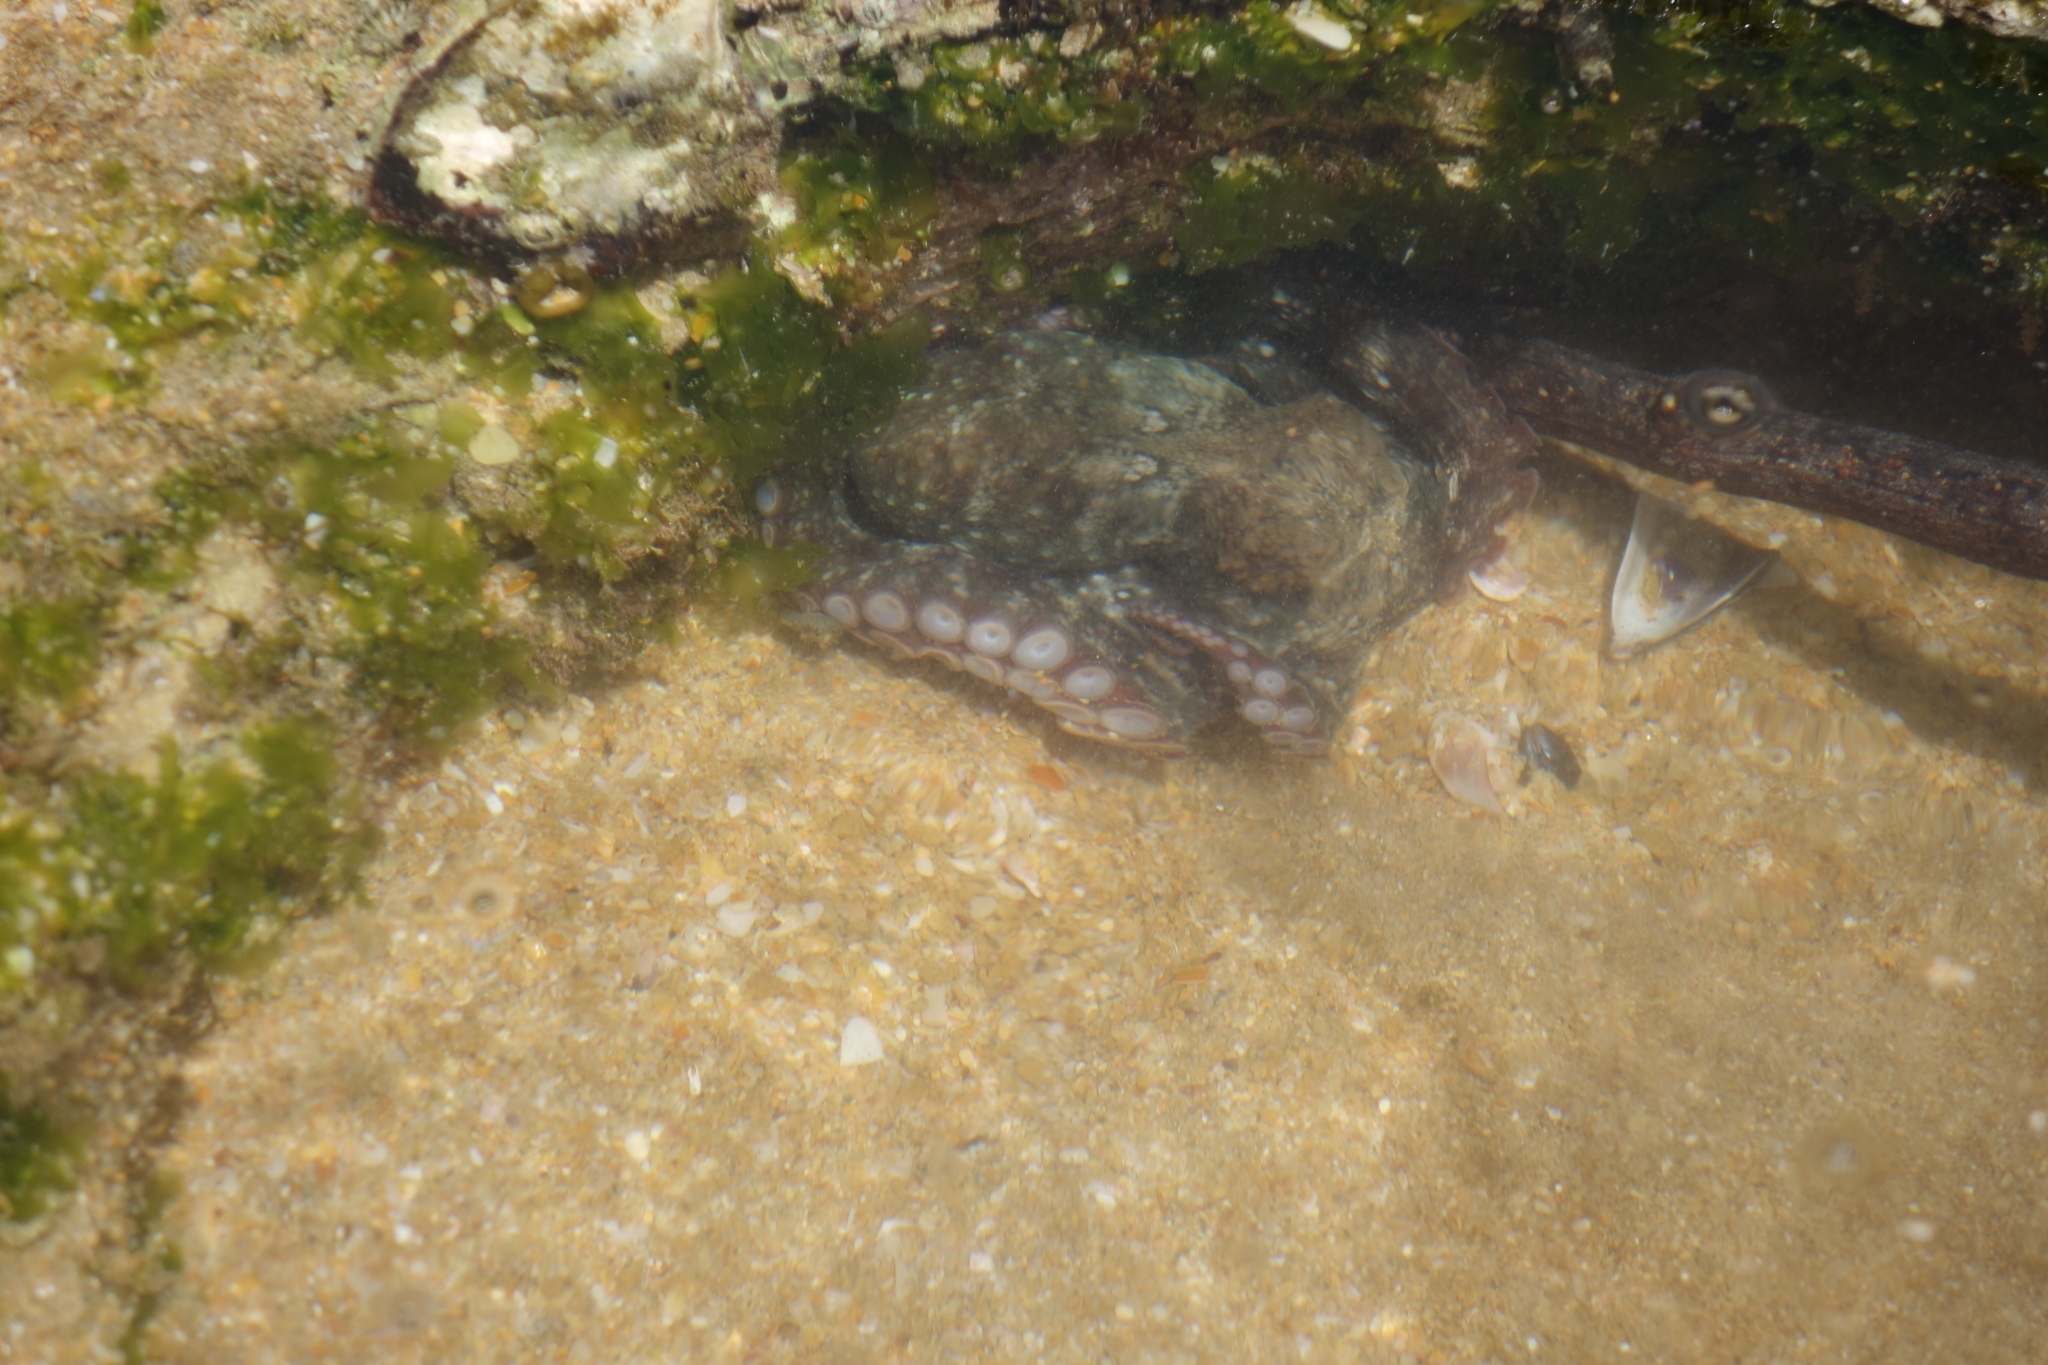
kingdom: Animalia
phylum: Mollusca
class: Cephalopoda
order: Octopoda
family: Octopodidae
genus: Octopus
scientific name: Octopus vulgaris
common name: Common octopus
